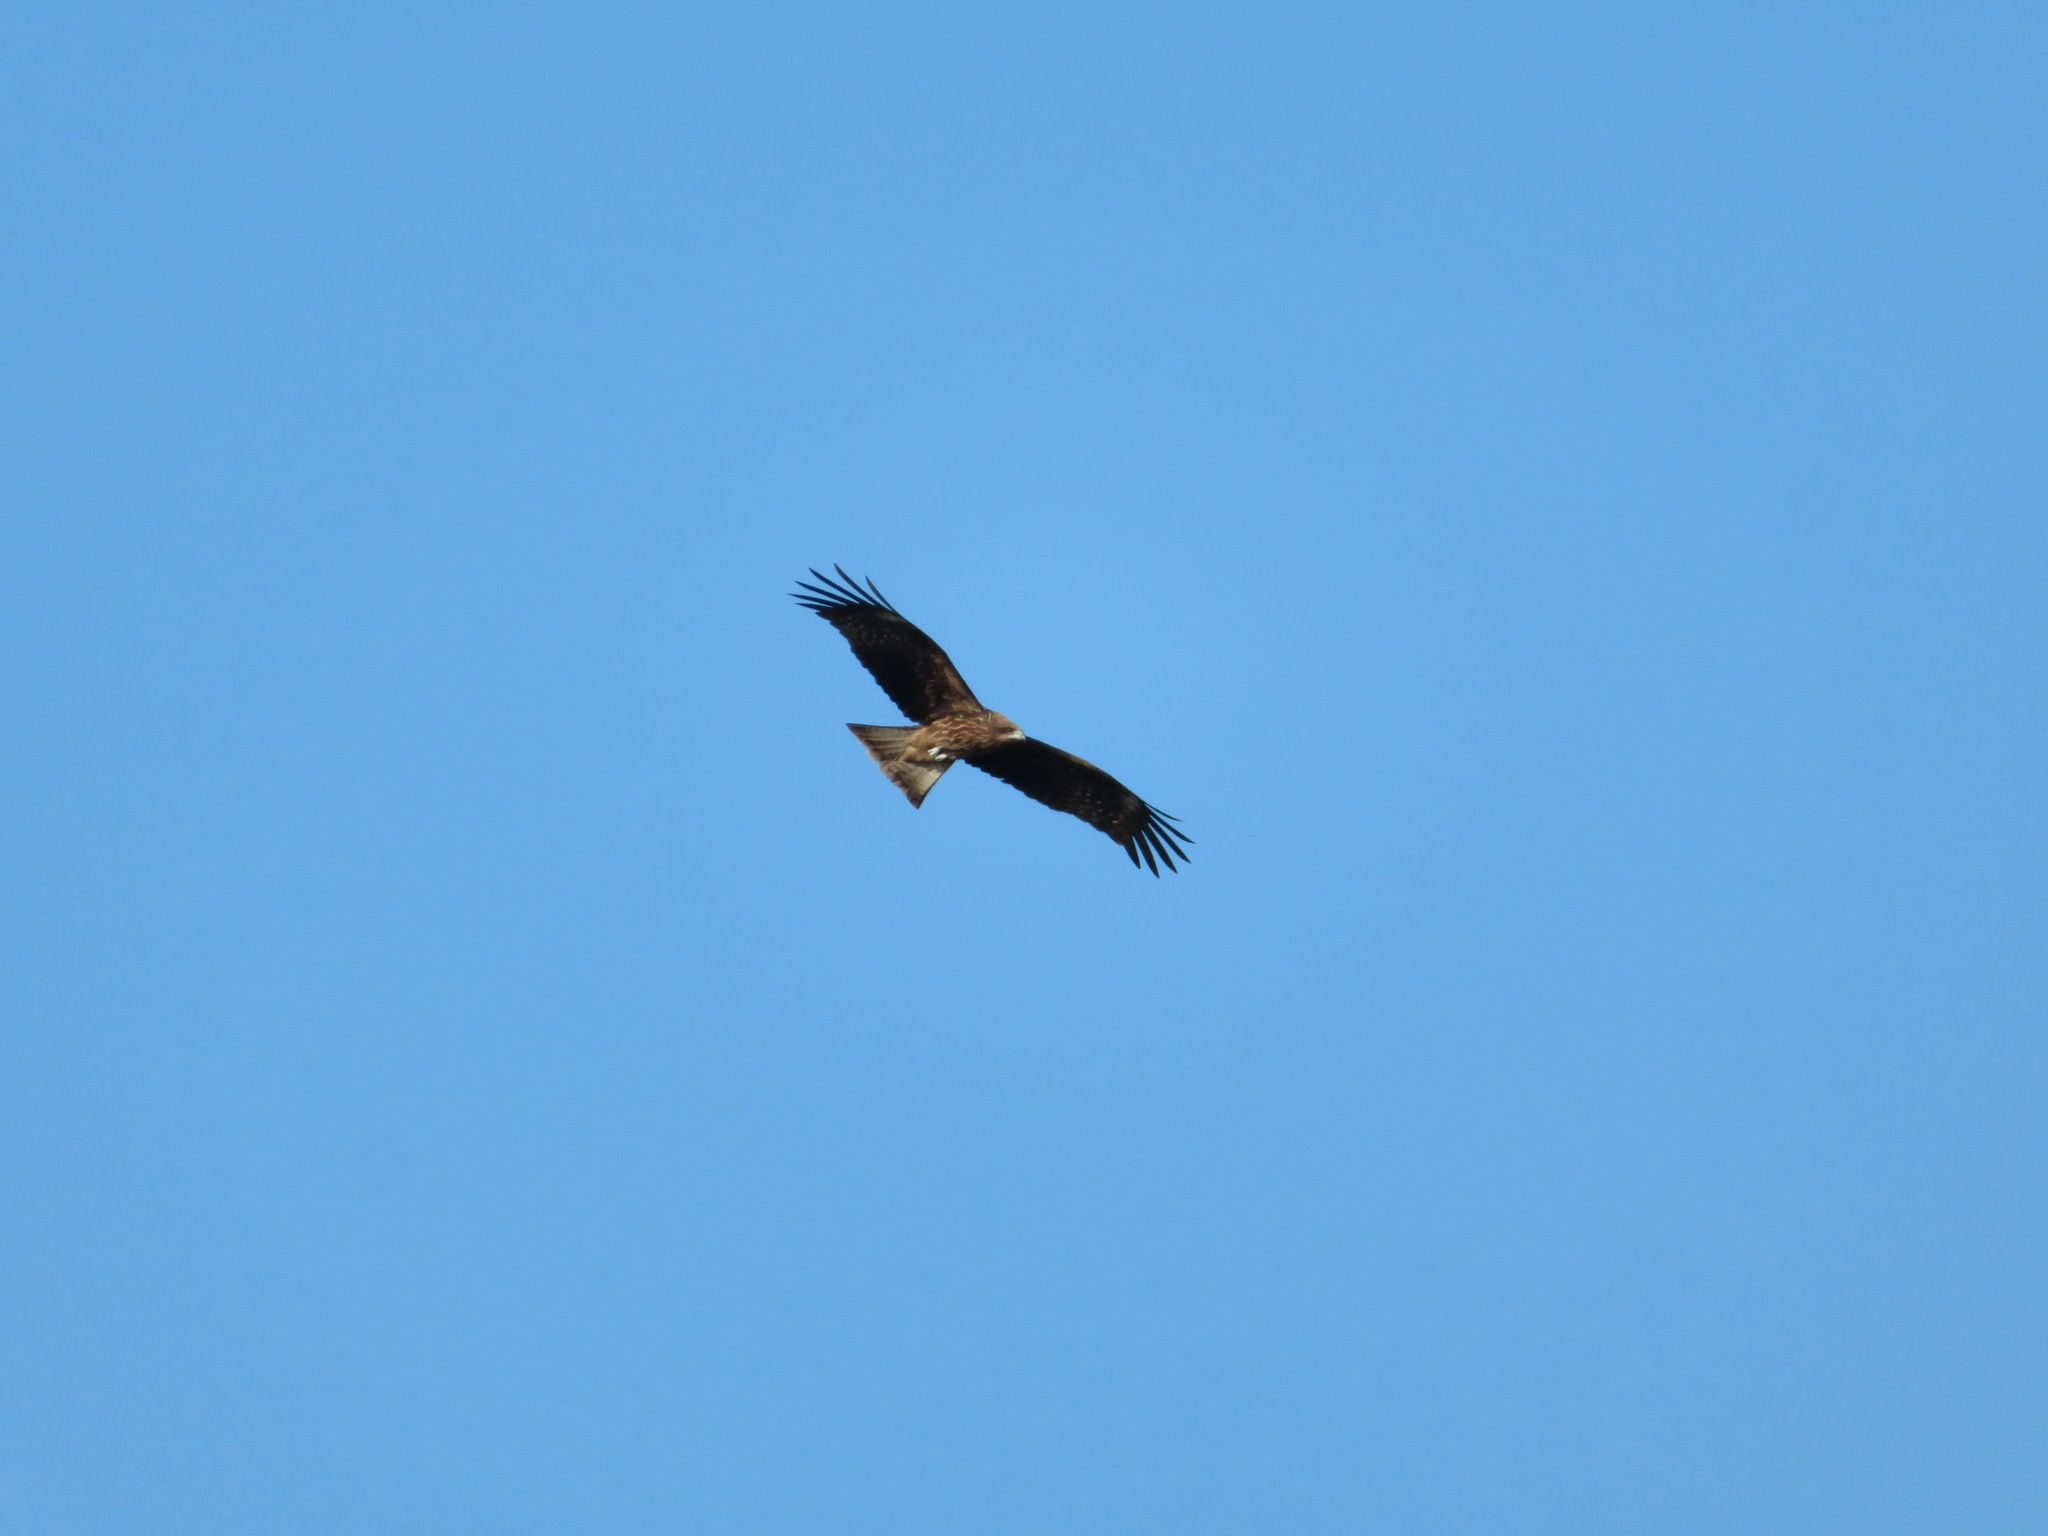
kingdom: Animalia
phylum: Chordata
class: Aves
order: Accipitriformes
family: Accipitridae
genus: Milvus
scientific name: Milvus migrans
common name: Black kite
